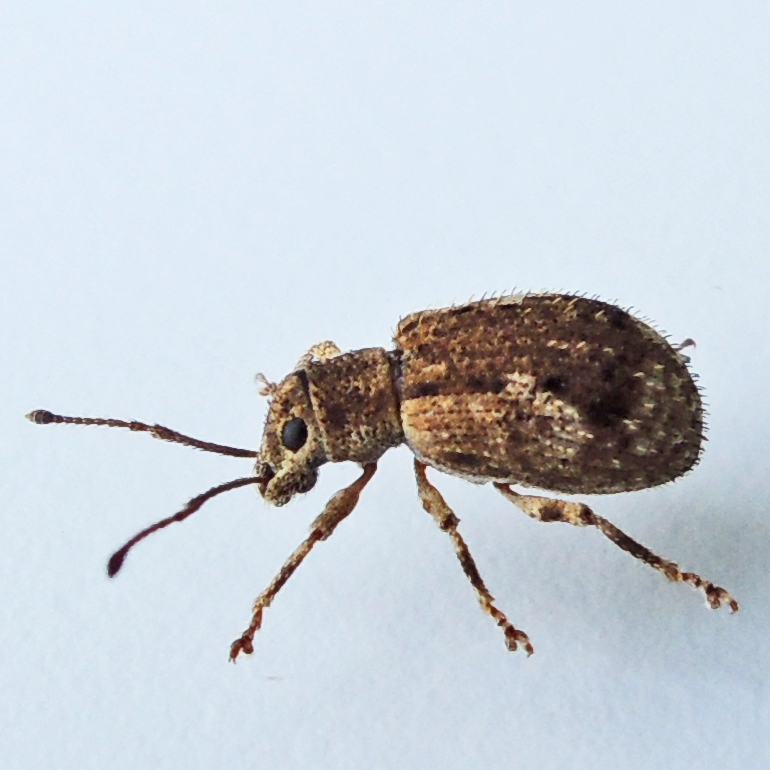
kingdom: Animalia
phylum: Arthropoda
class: Insecta
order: Coleoptera
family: Curculionidae
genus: Pseudoedophrys
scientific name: Pseudoedophrys hilleri
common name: Weevil
